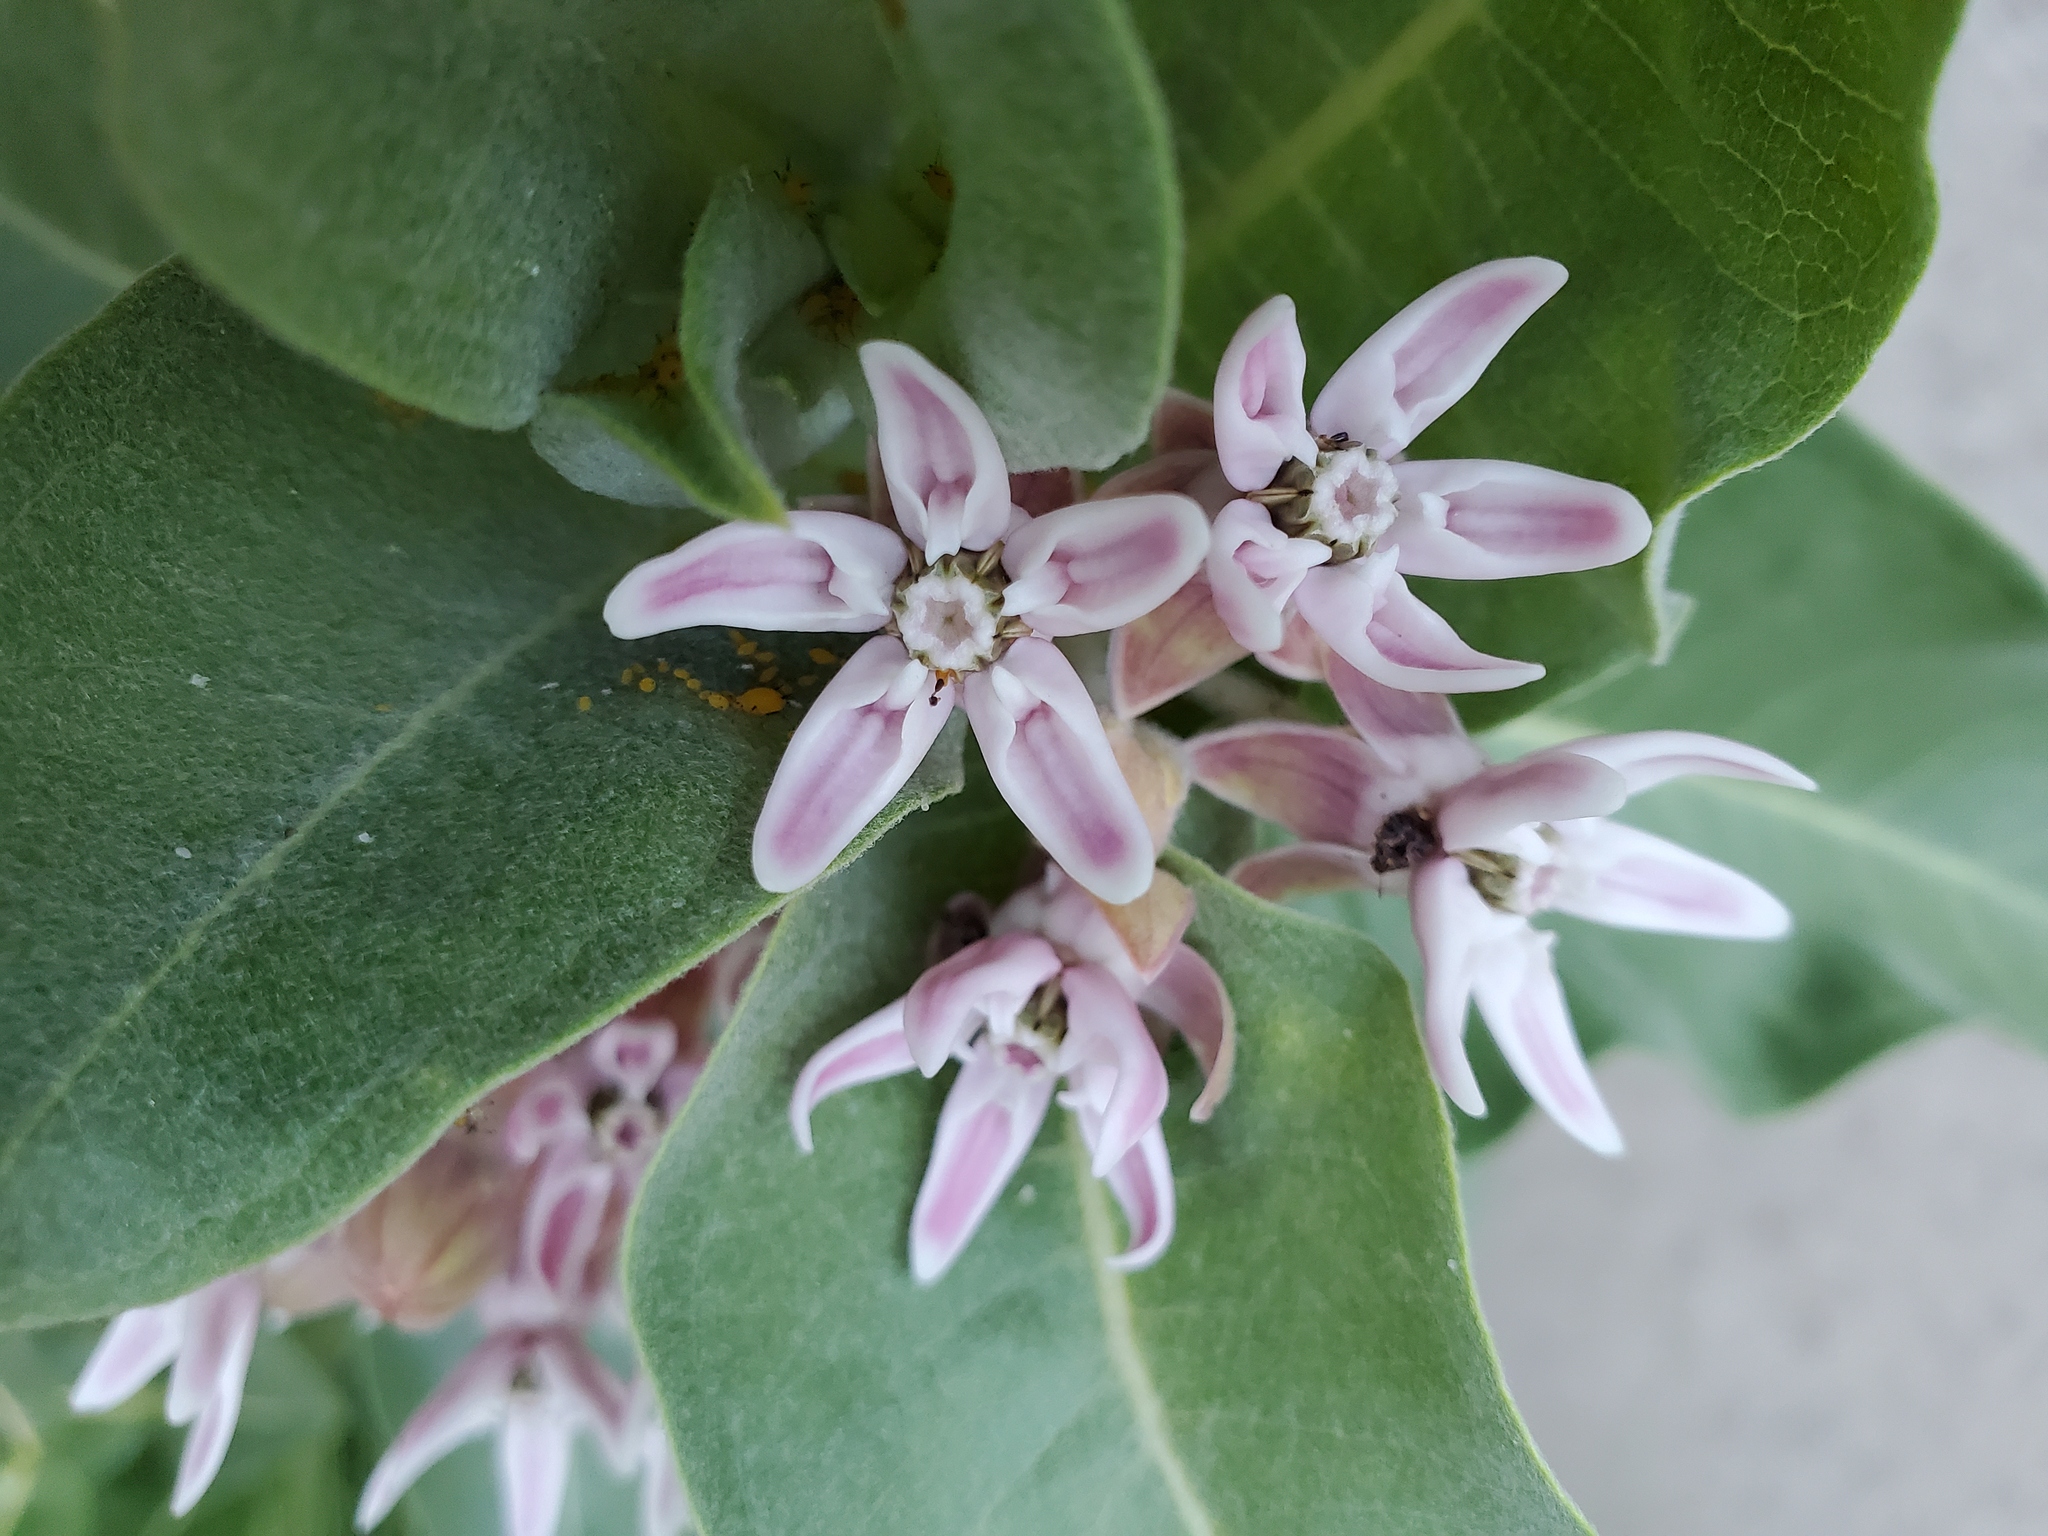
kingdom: Plantae
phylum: Tracheophyta
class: Magnoliopsida
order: Gentianales
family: Apocynaceae
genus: Asclepias
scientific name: Asclepias speciosa
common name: Showy milkweed
